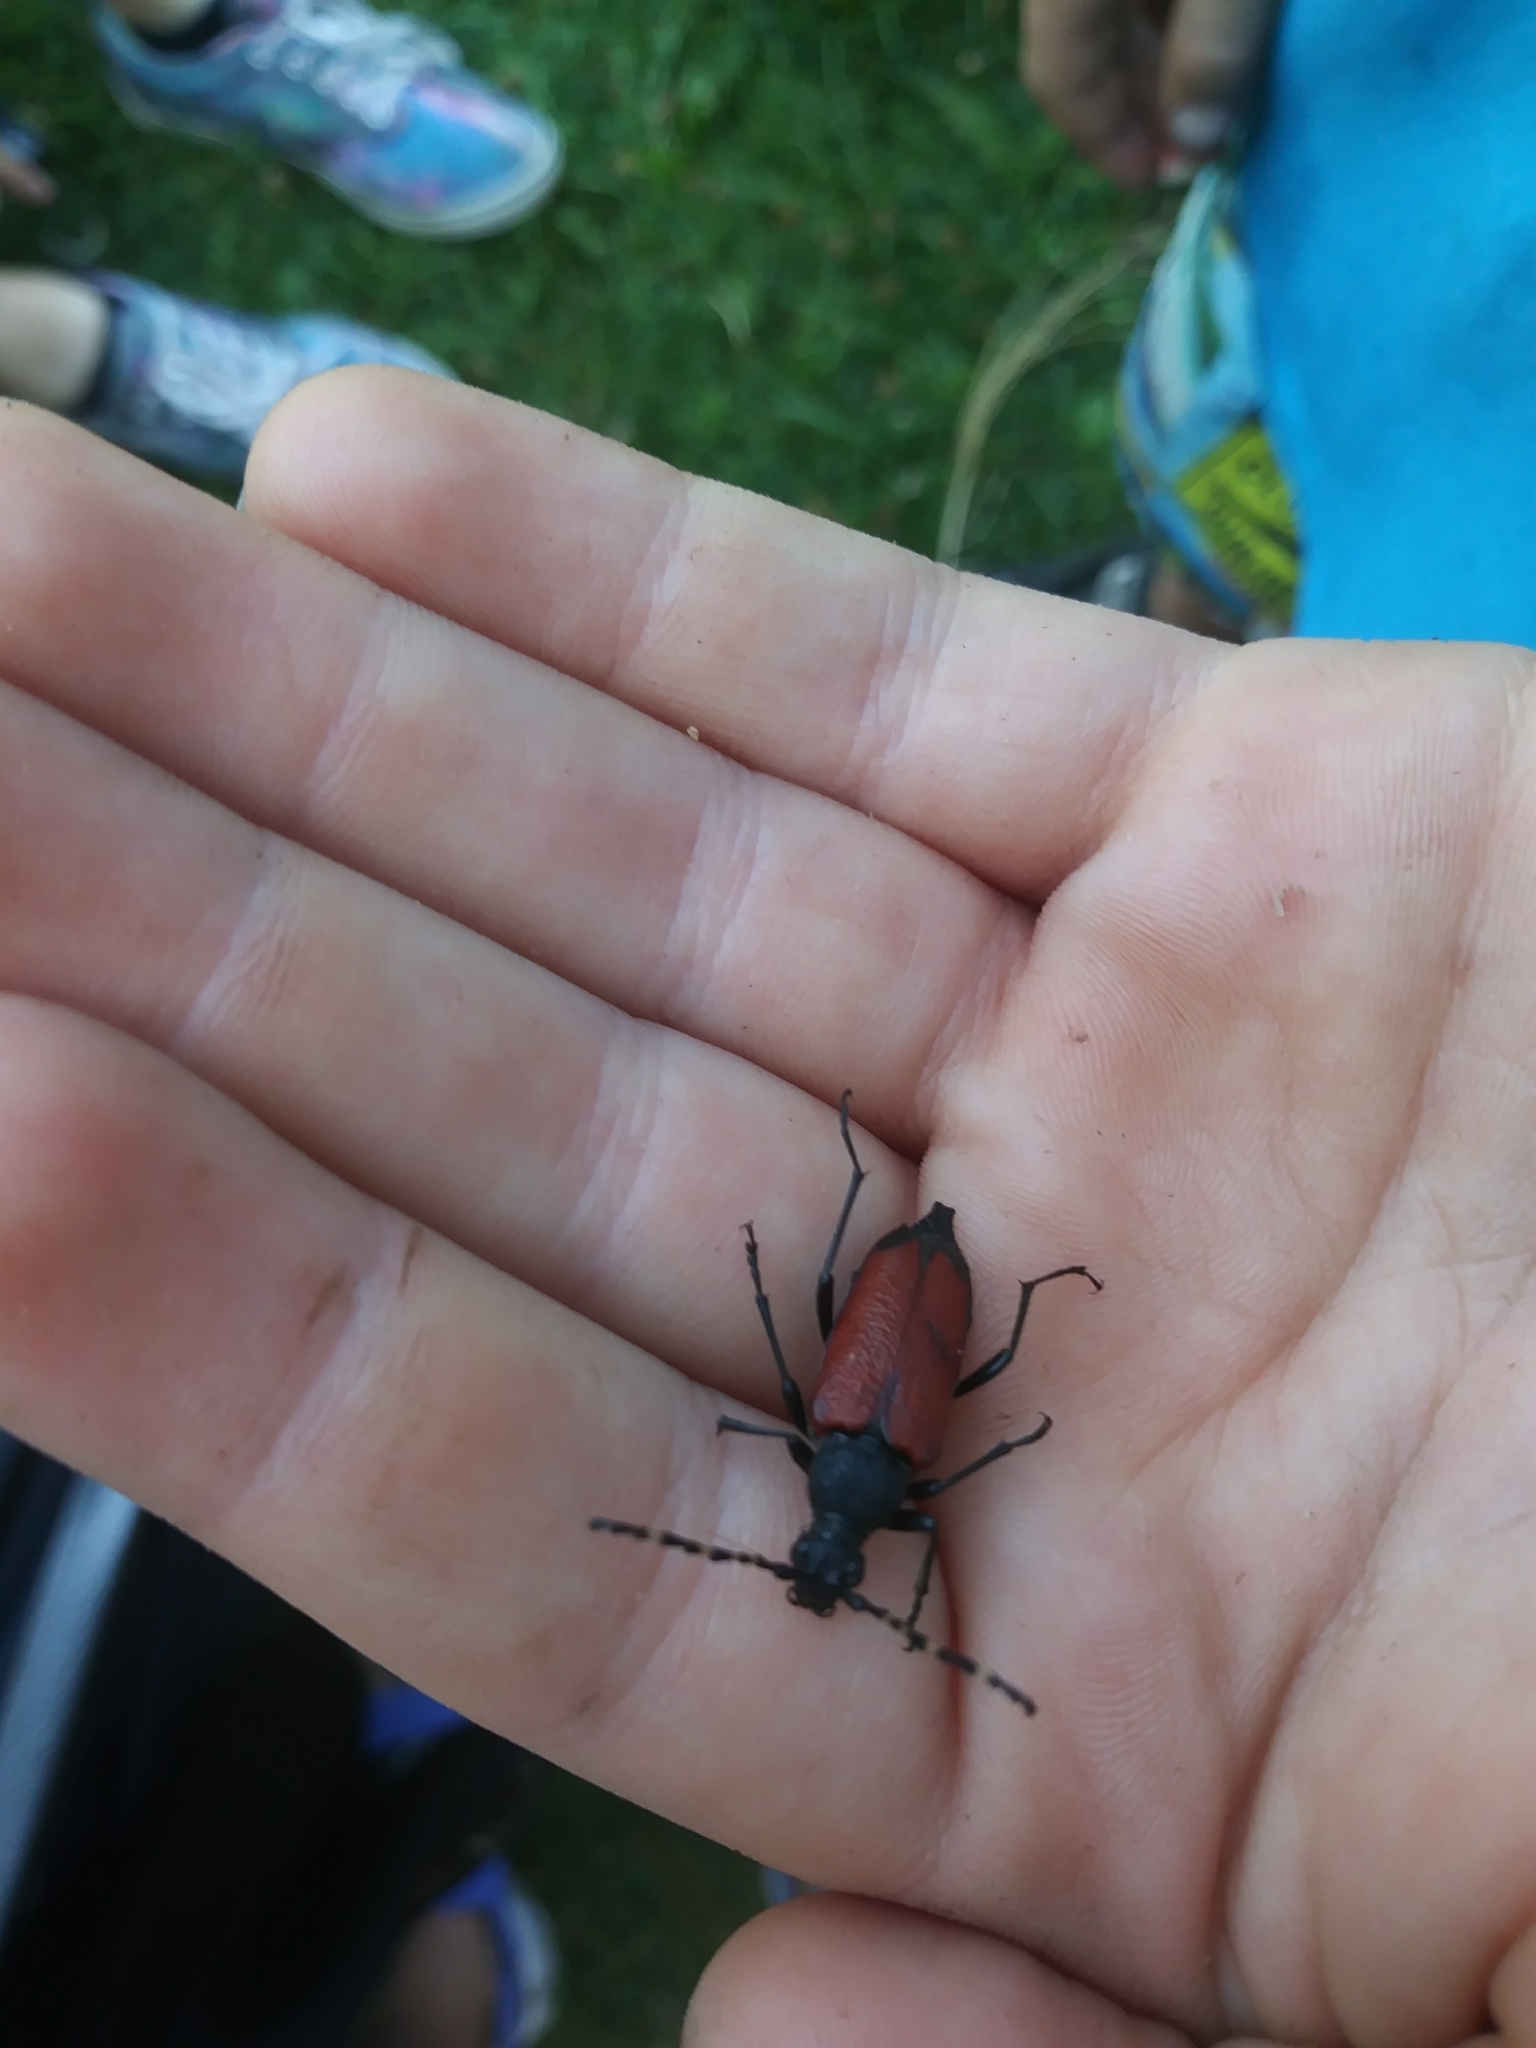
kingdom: Animalia
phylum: Arthropoda
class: Insecta
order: Coleoptera
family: Cerambycidae
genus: Stictoleptura
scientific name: Stictoleptura canadensis
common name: Red-shouldered pine borer
